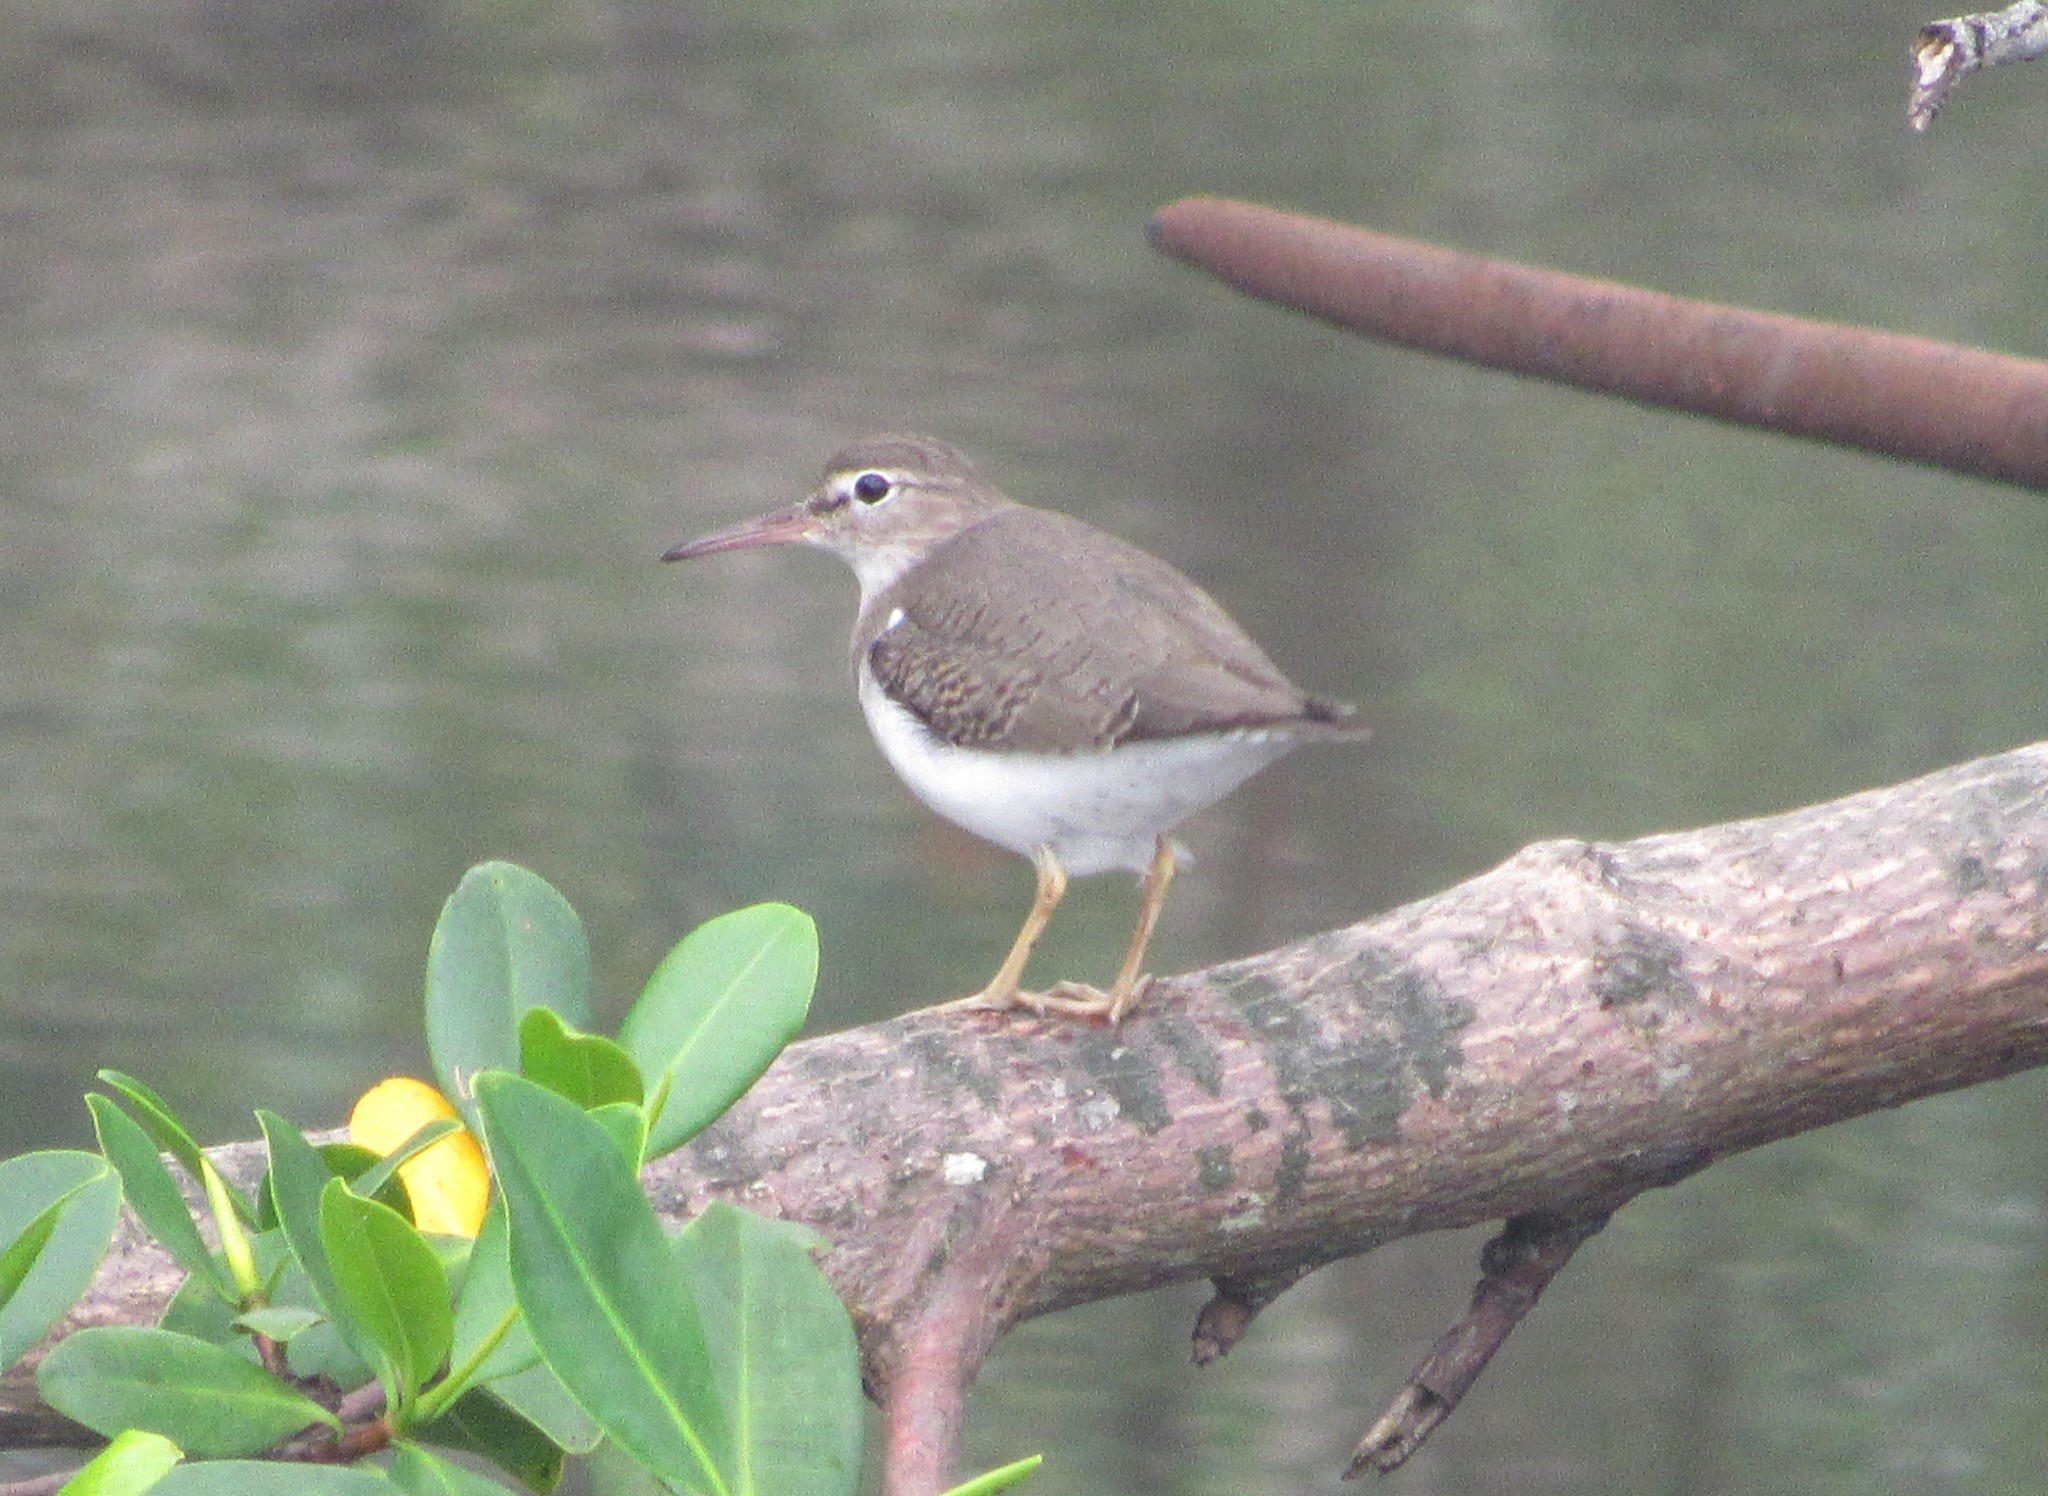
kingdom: Animalia
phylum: Chordata
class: Aves
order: Charadriiformes
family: Scolopacidae
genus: Actitis
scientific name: Actitis macularius
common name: Spotted sandpiper
